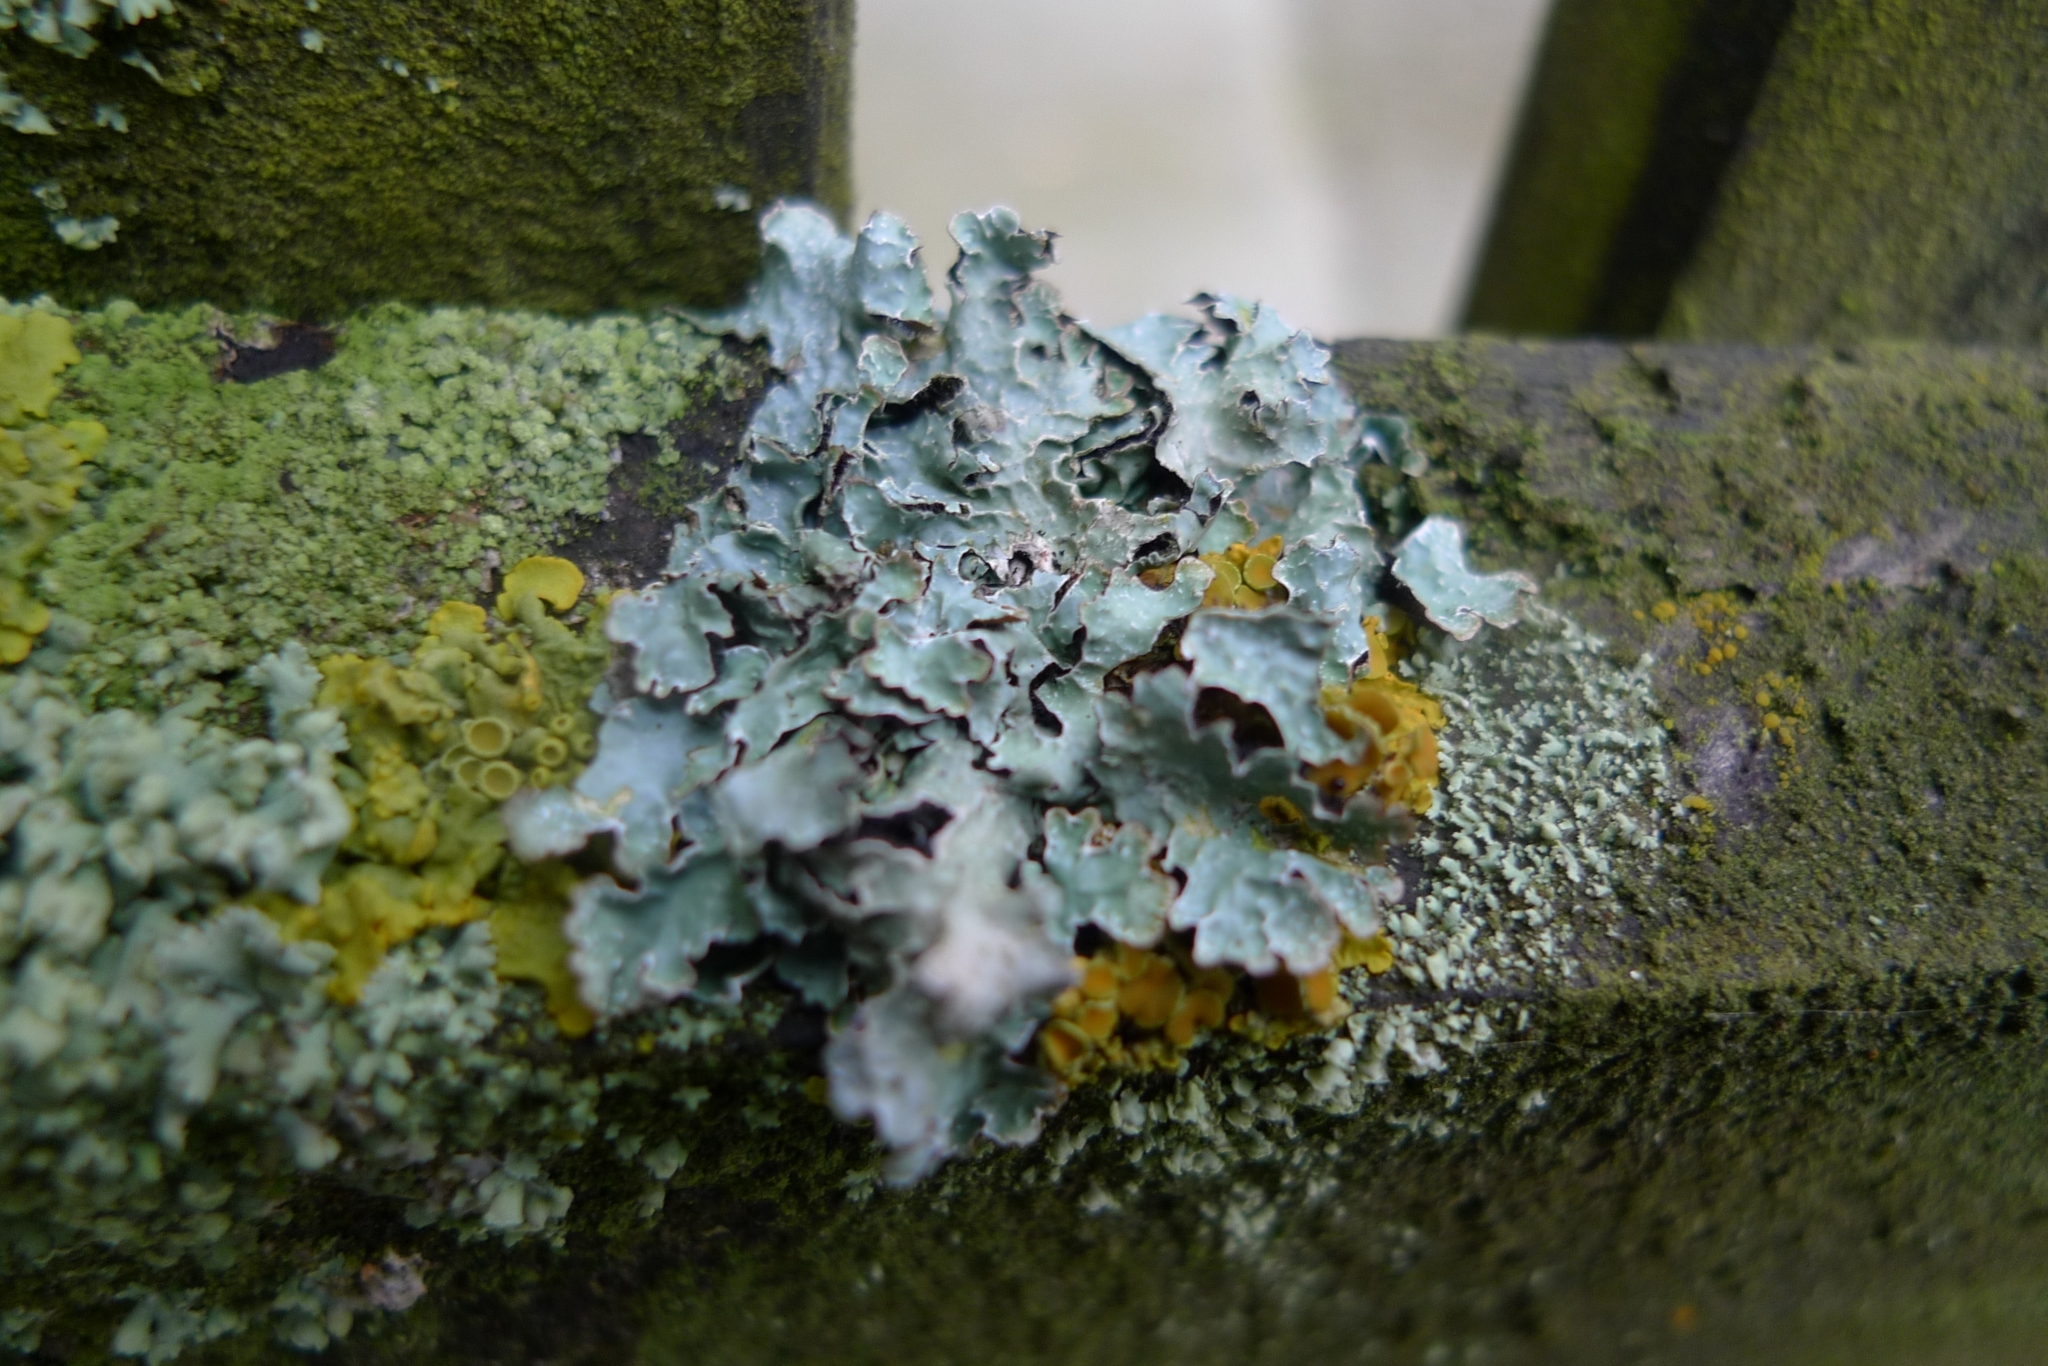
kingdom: Fungi
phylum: Ascomycota
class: Lecanoromycetes
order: Lecanorales
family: Parmeliaceae
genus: Parmelia
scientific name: Parmelia sulcata
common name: Netted shield lichen
